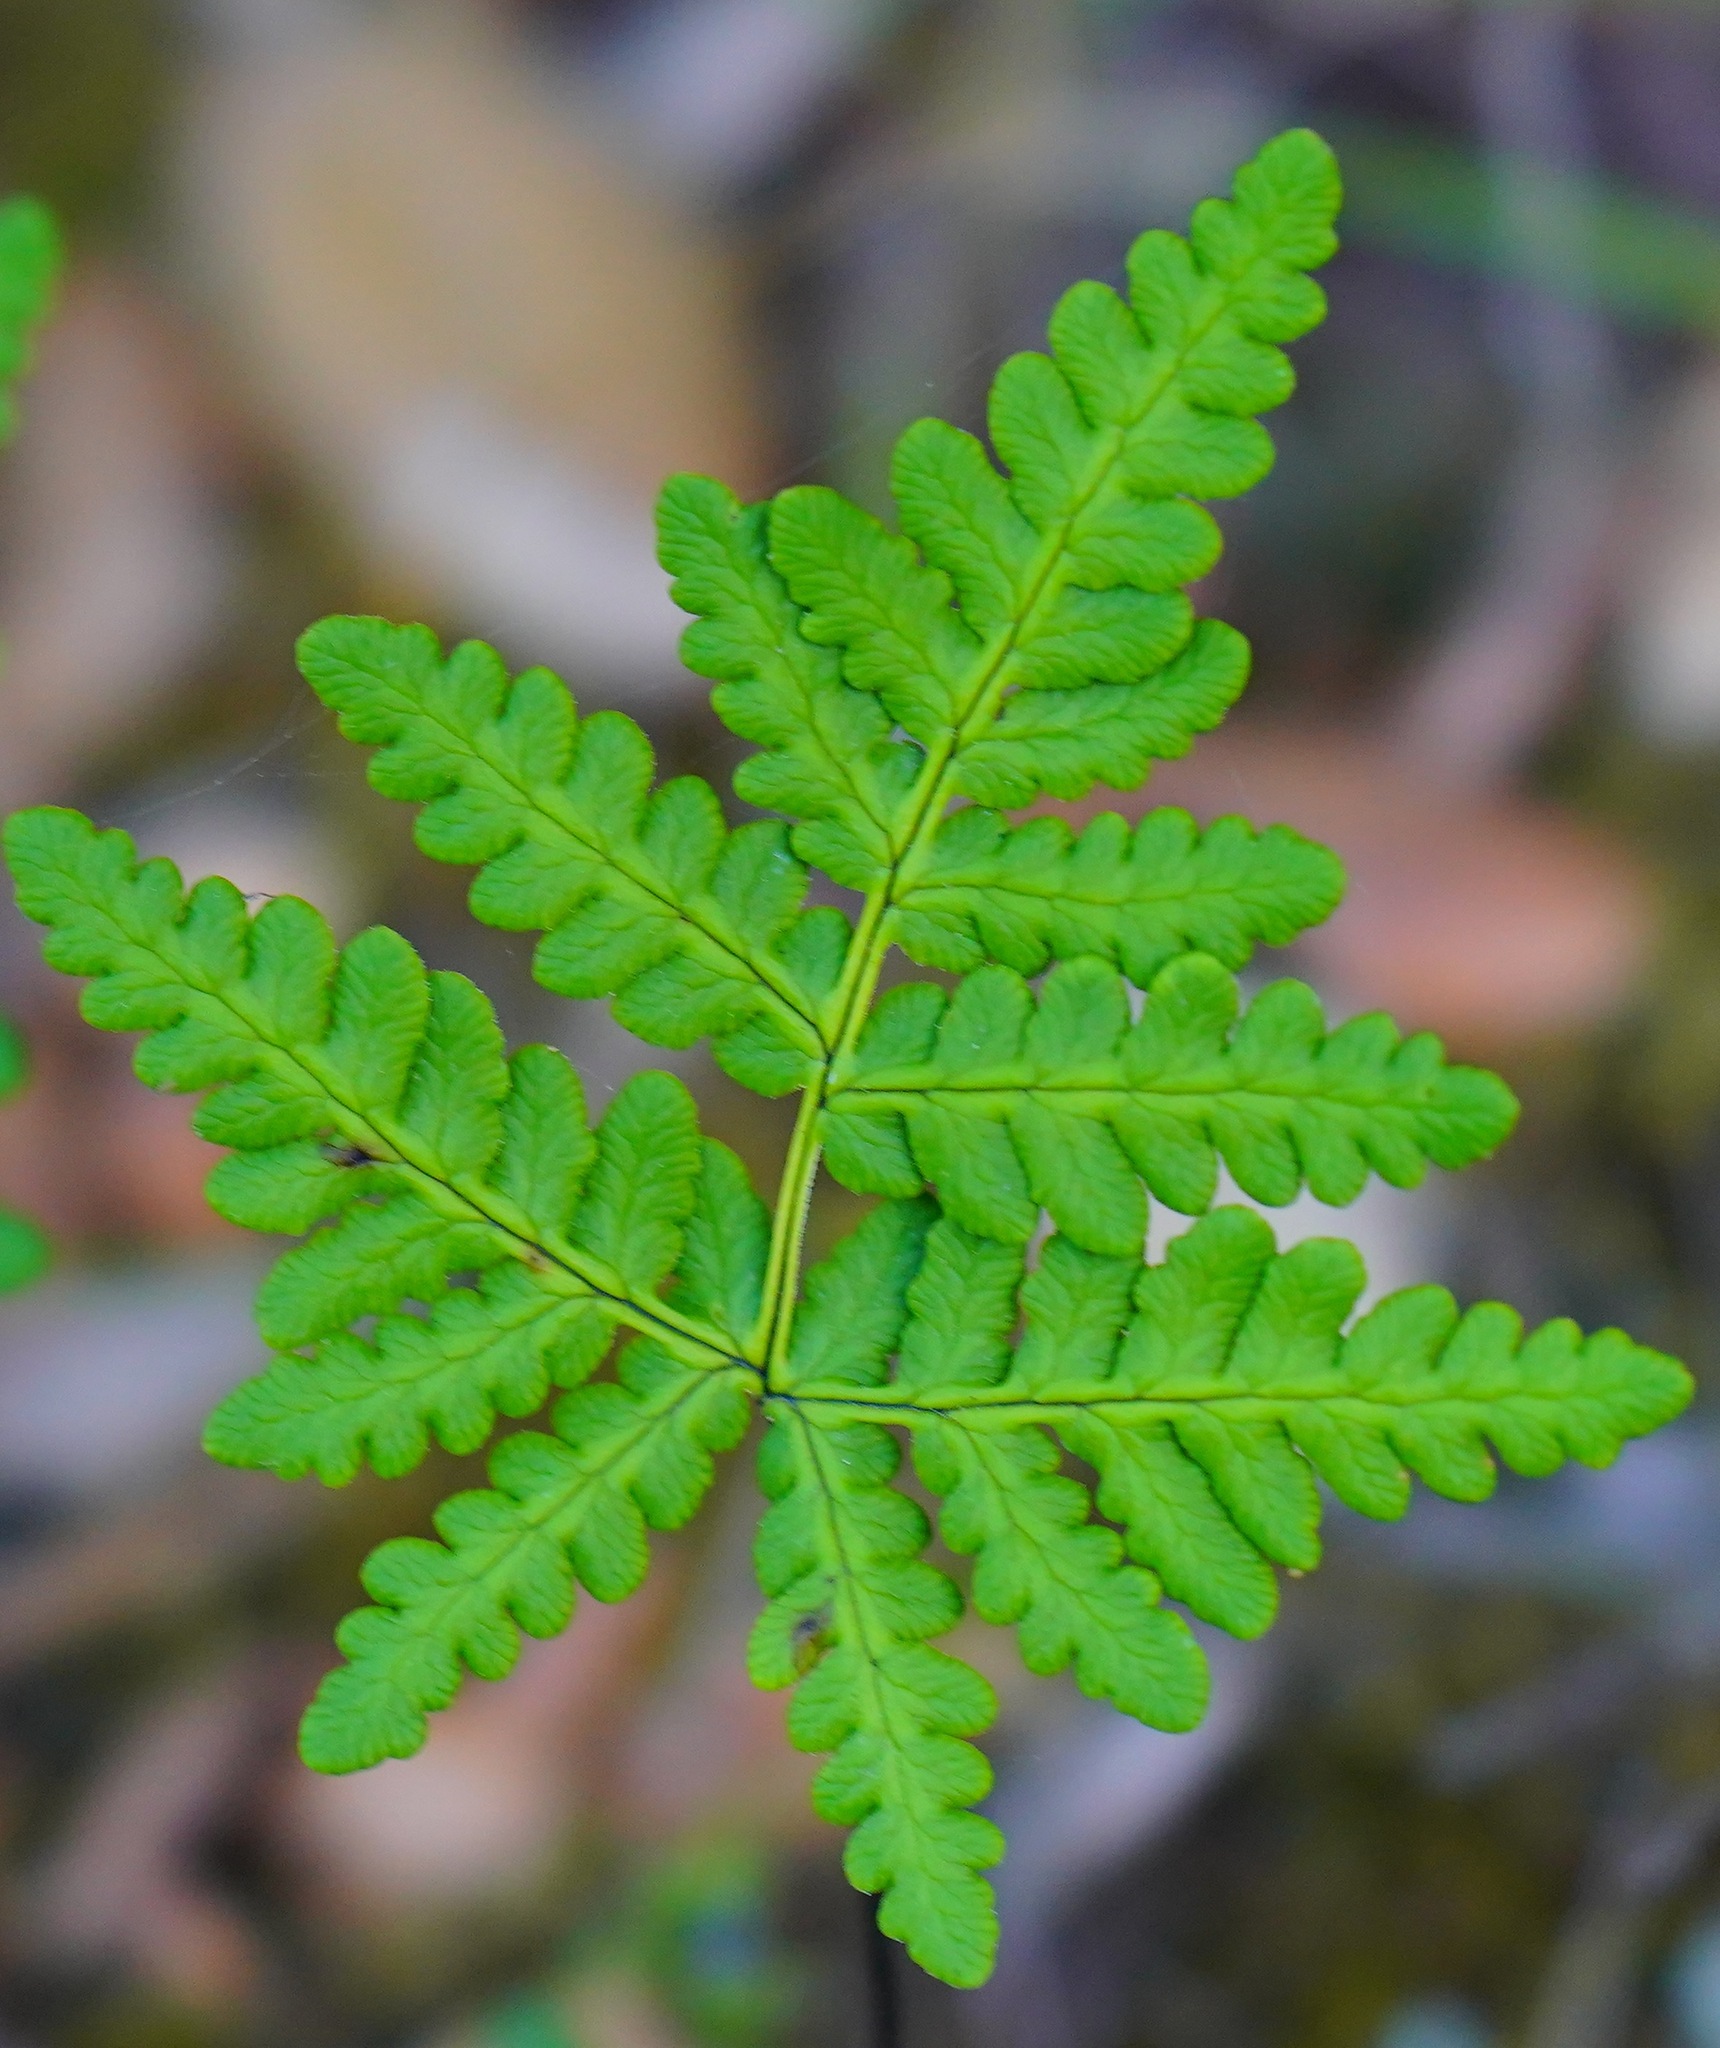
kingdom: Plantae
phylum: Tracheophyta
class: Polypodiopsida
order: Polypodiales
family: Pteridaceae
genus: Pentagramma
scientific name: Pentagramma triangularis
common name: Gold fern
